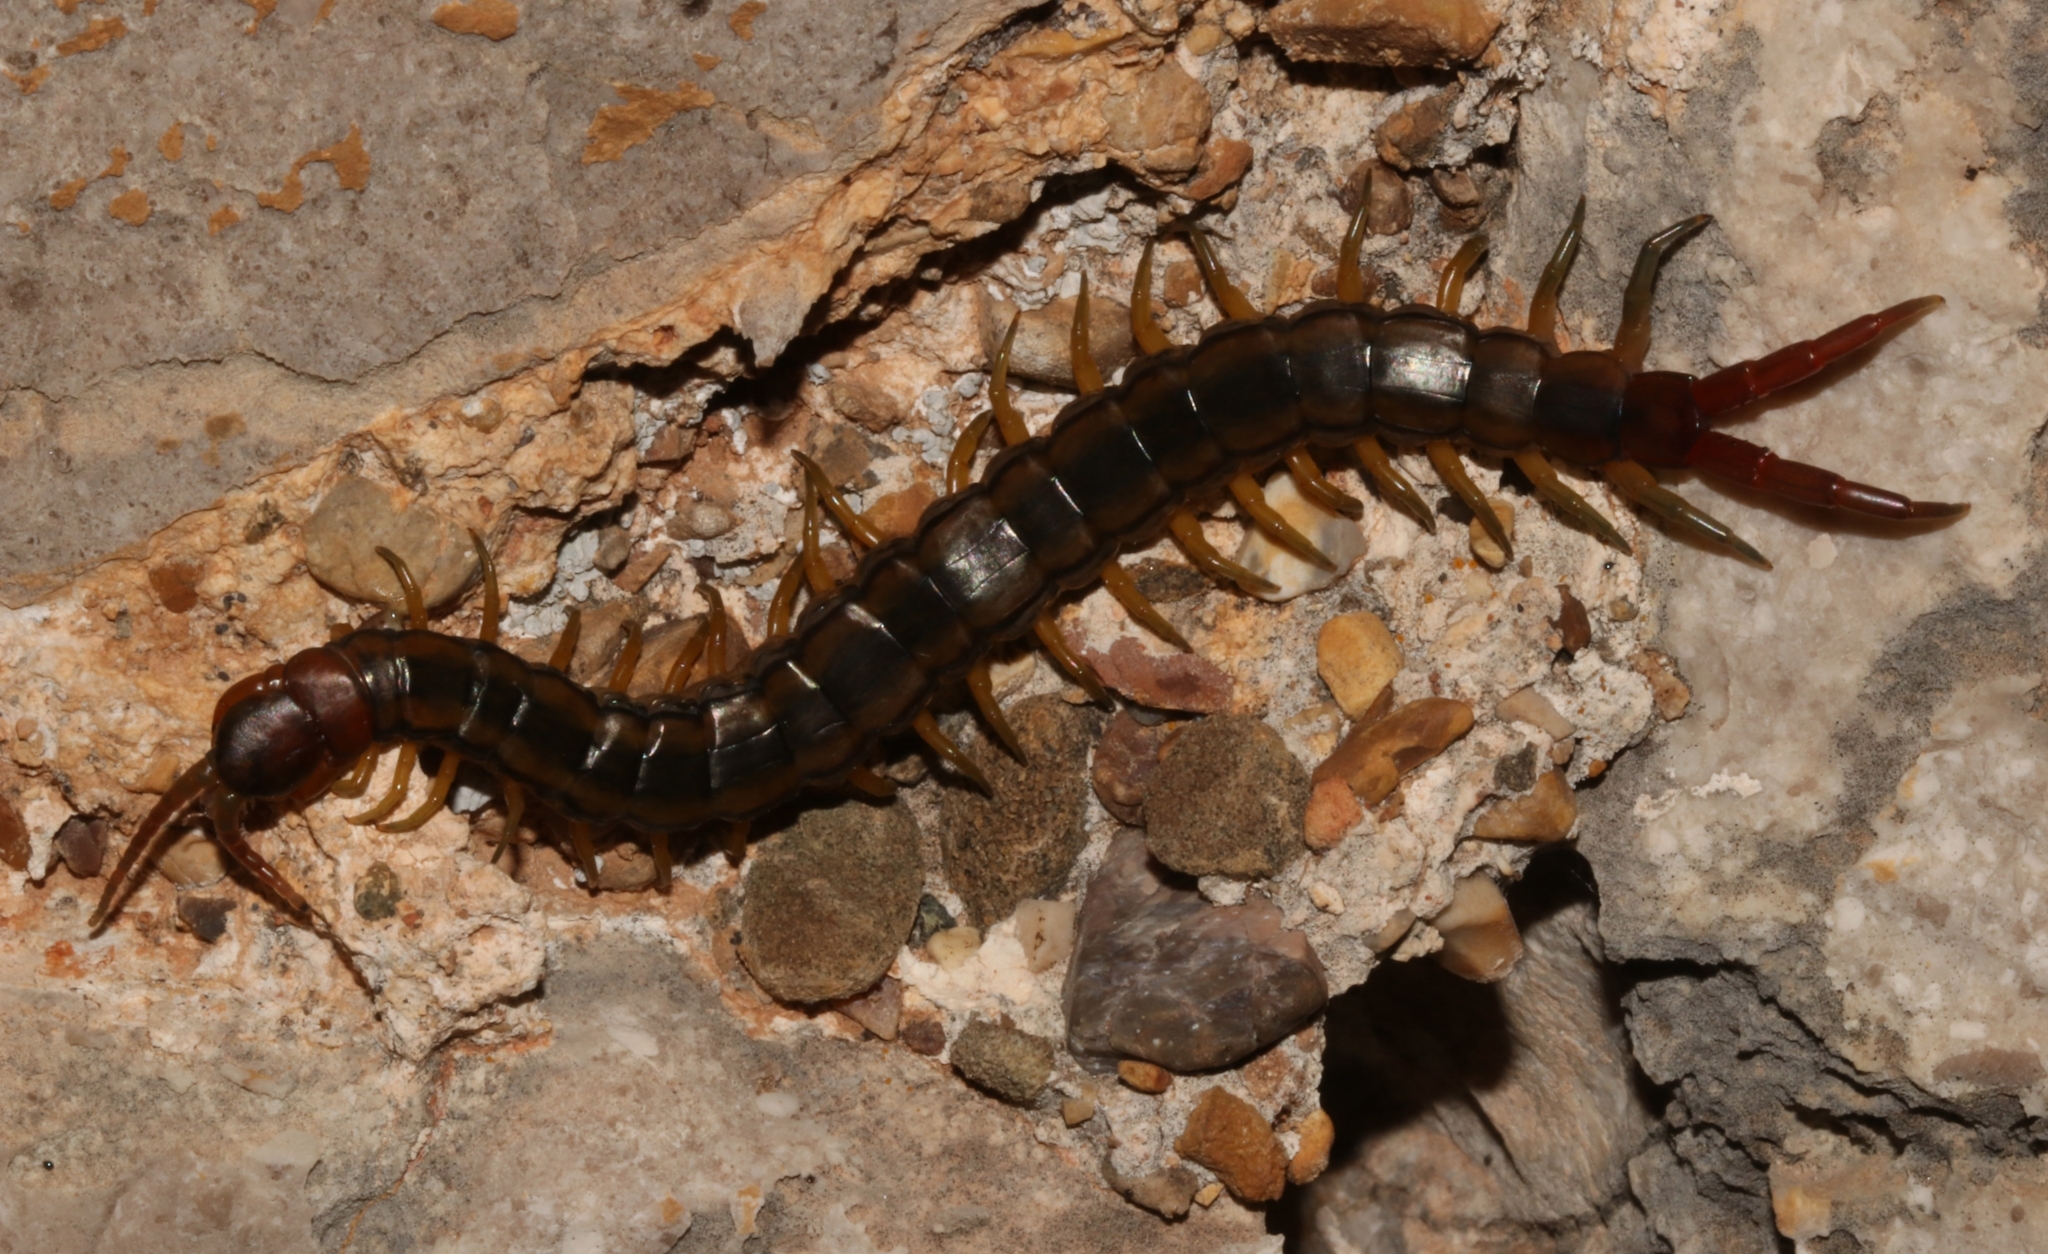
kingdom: Animalia
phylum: Arthropoda
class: Chilopoda
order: Scolopendromorpha
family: Scolopendridae
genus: Scolopendra
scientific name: Scolopendra cingulata
